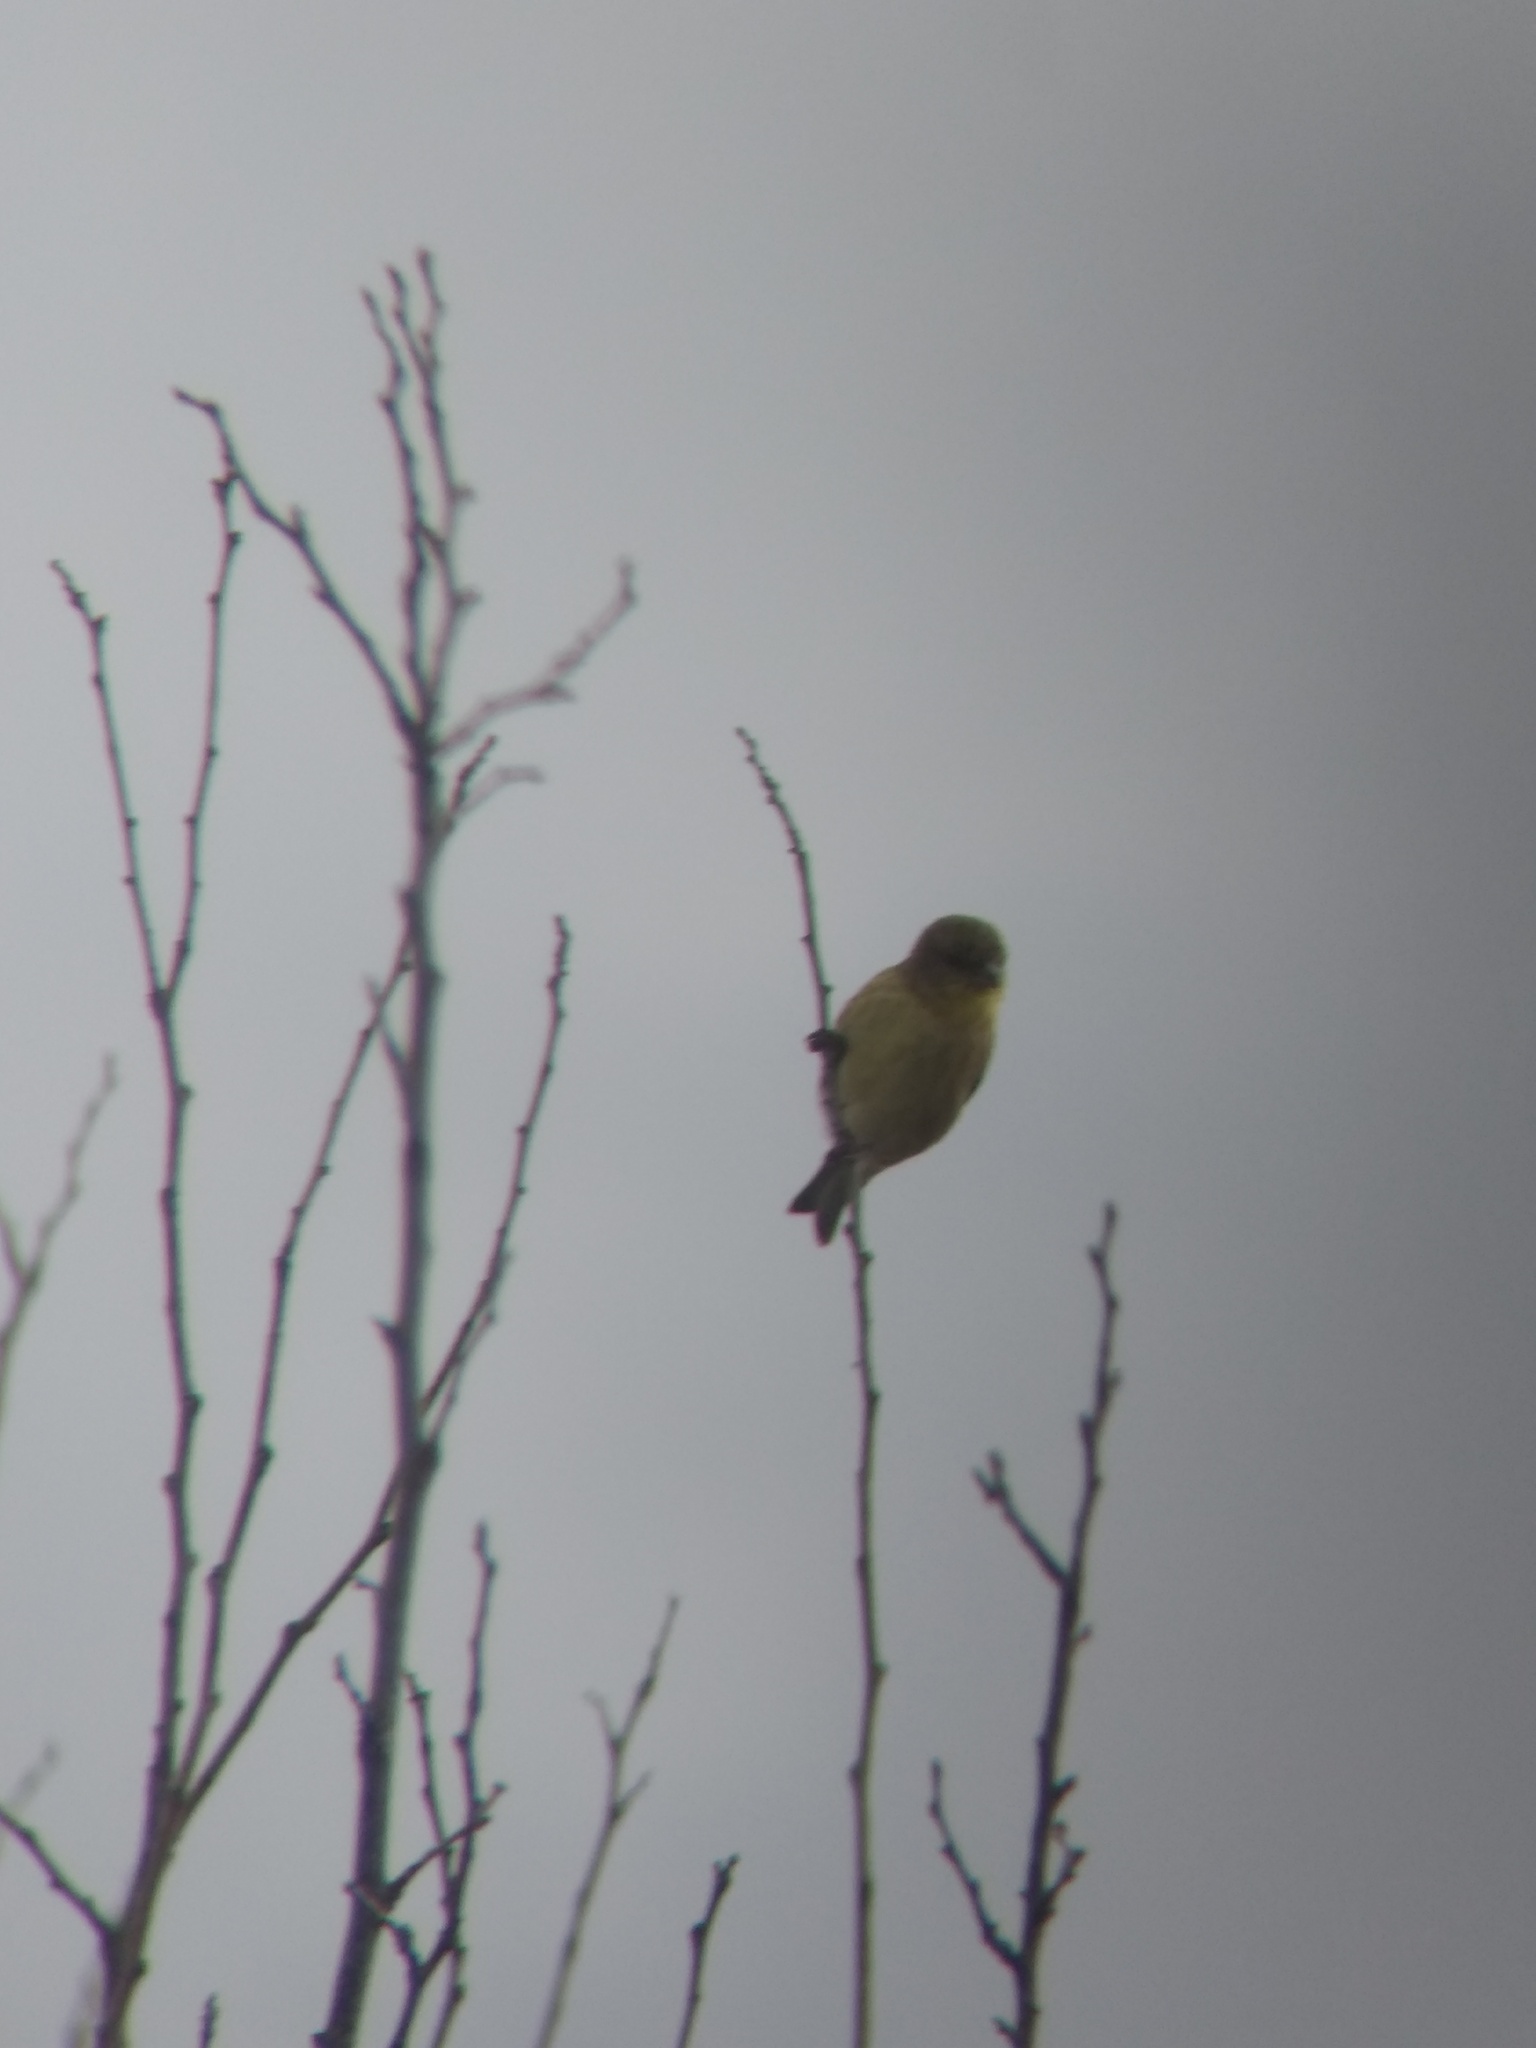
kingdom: Animalia
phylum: Chordata
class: Aves
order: Passeriformes
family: Fringillidae
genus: Spinus
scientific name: Spinus psaltria
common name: Lesser goldfinch
